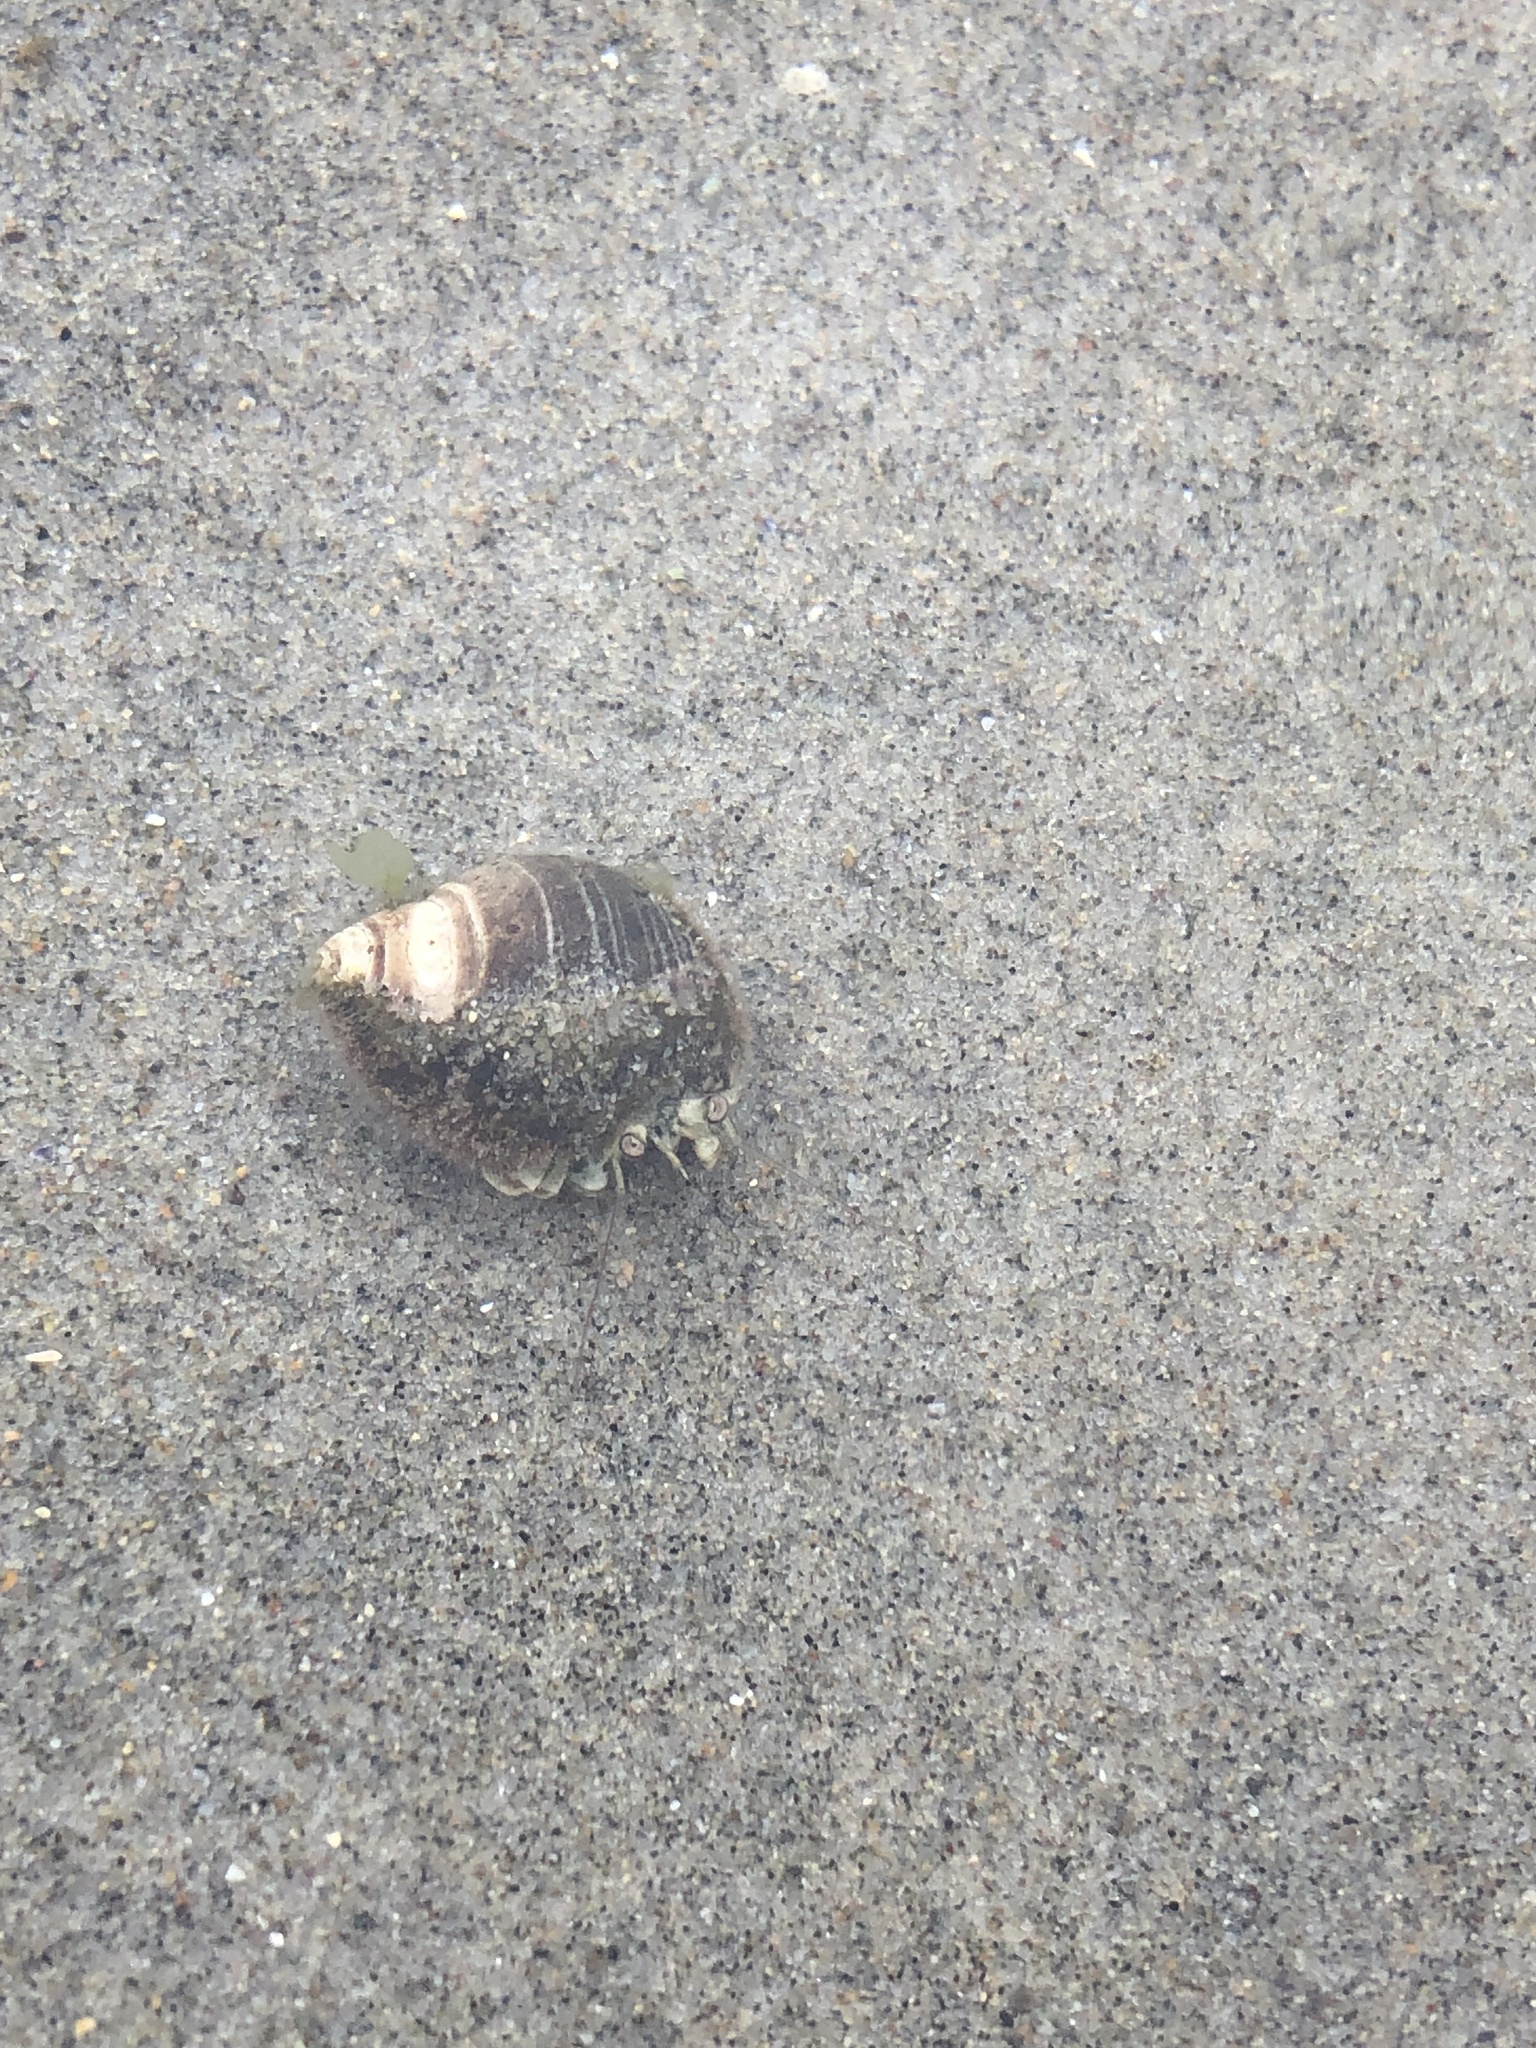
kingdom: Animalia
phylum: Arthropoda
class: Malacostraca
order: Decapoda
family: Paguridae
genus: Pagurus
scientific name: Pagurus longicarpus
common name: Long-armed hermit crab
